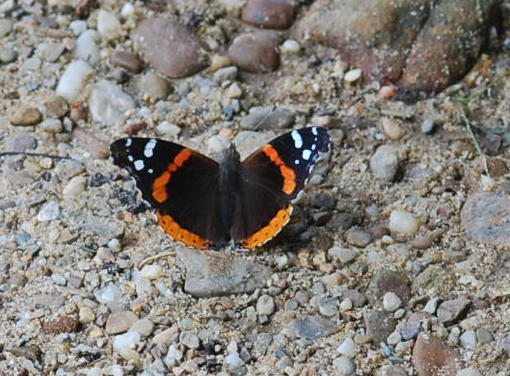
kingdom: Animalia
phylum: Arthropoda
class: Insecta
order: Lepidoptera
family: Nymphalidae
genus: Vanessa
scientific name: Vanessa atalanta
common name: Red admiral
